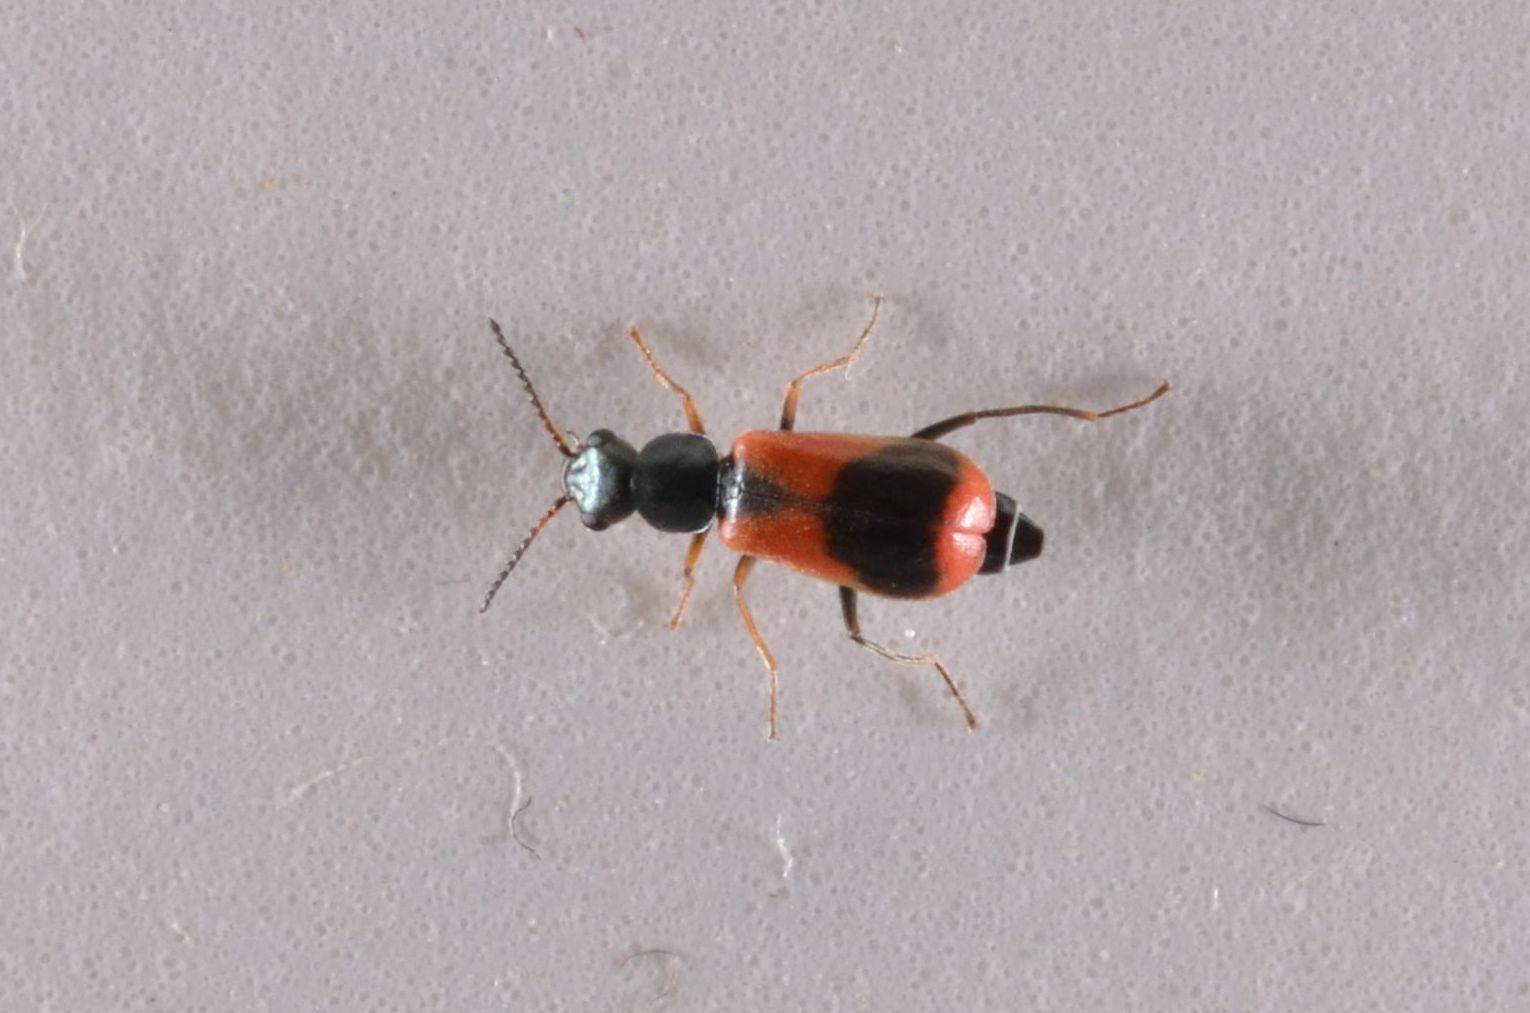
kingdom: Animalia
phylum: Arthropoda
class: Insecta
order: Coleoptera
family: Melyridae
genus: Anthocomus
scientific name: Anthocomus equestris
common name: Black-banded soft-winged flower beetle
